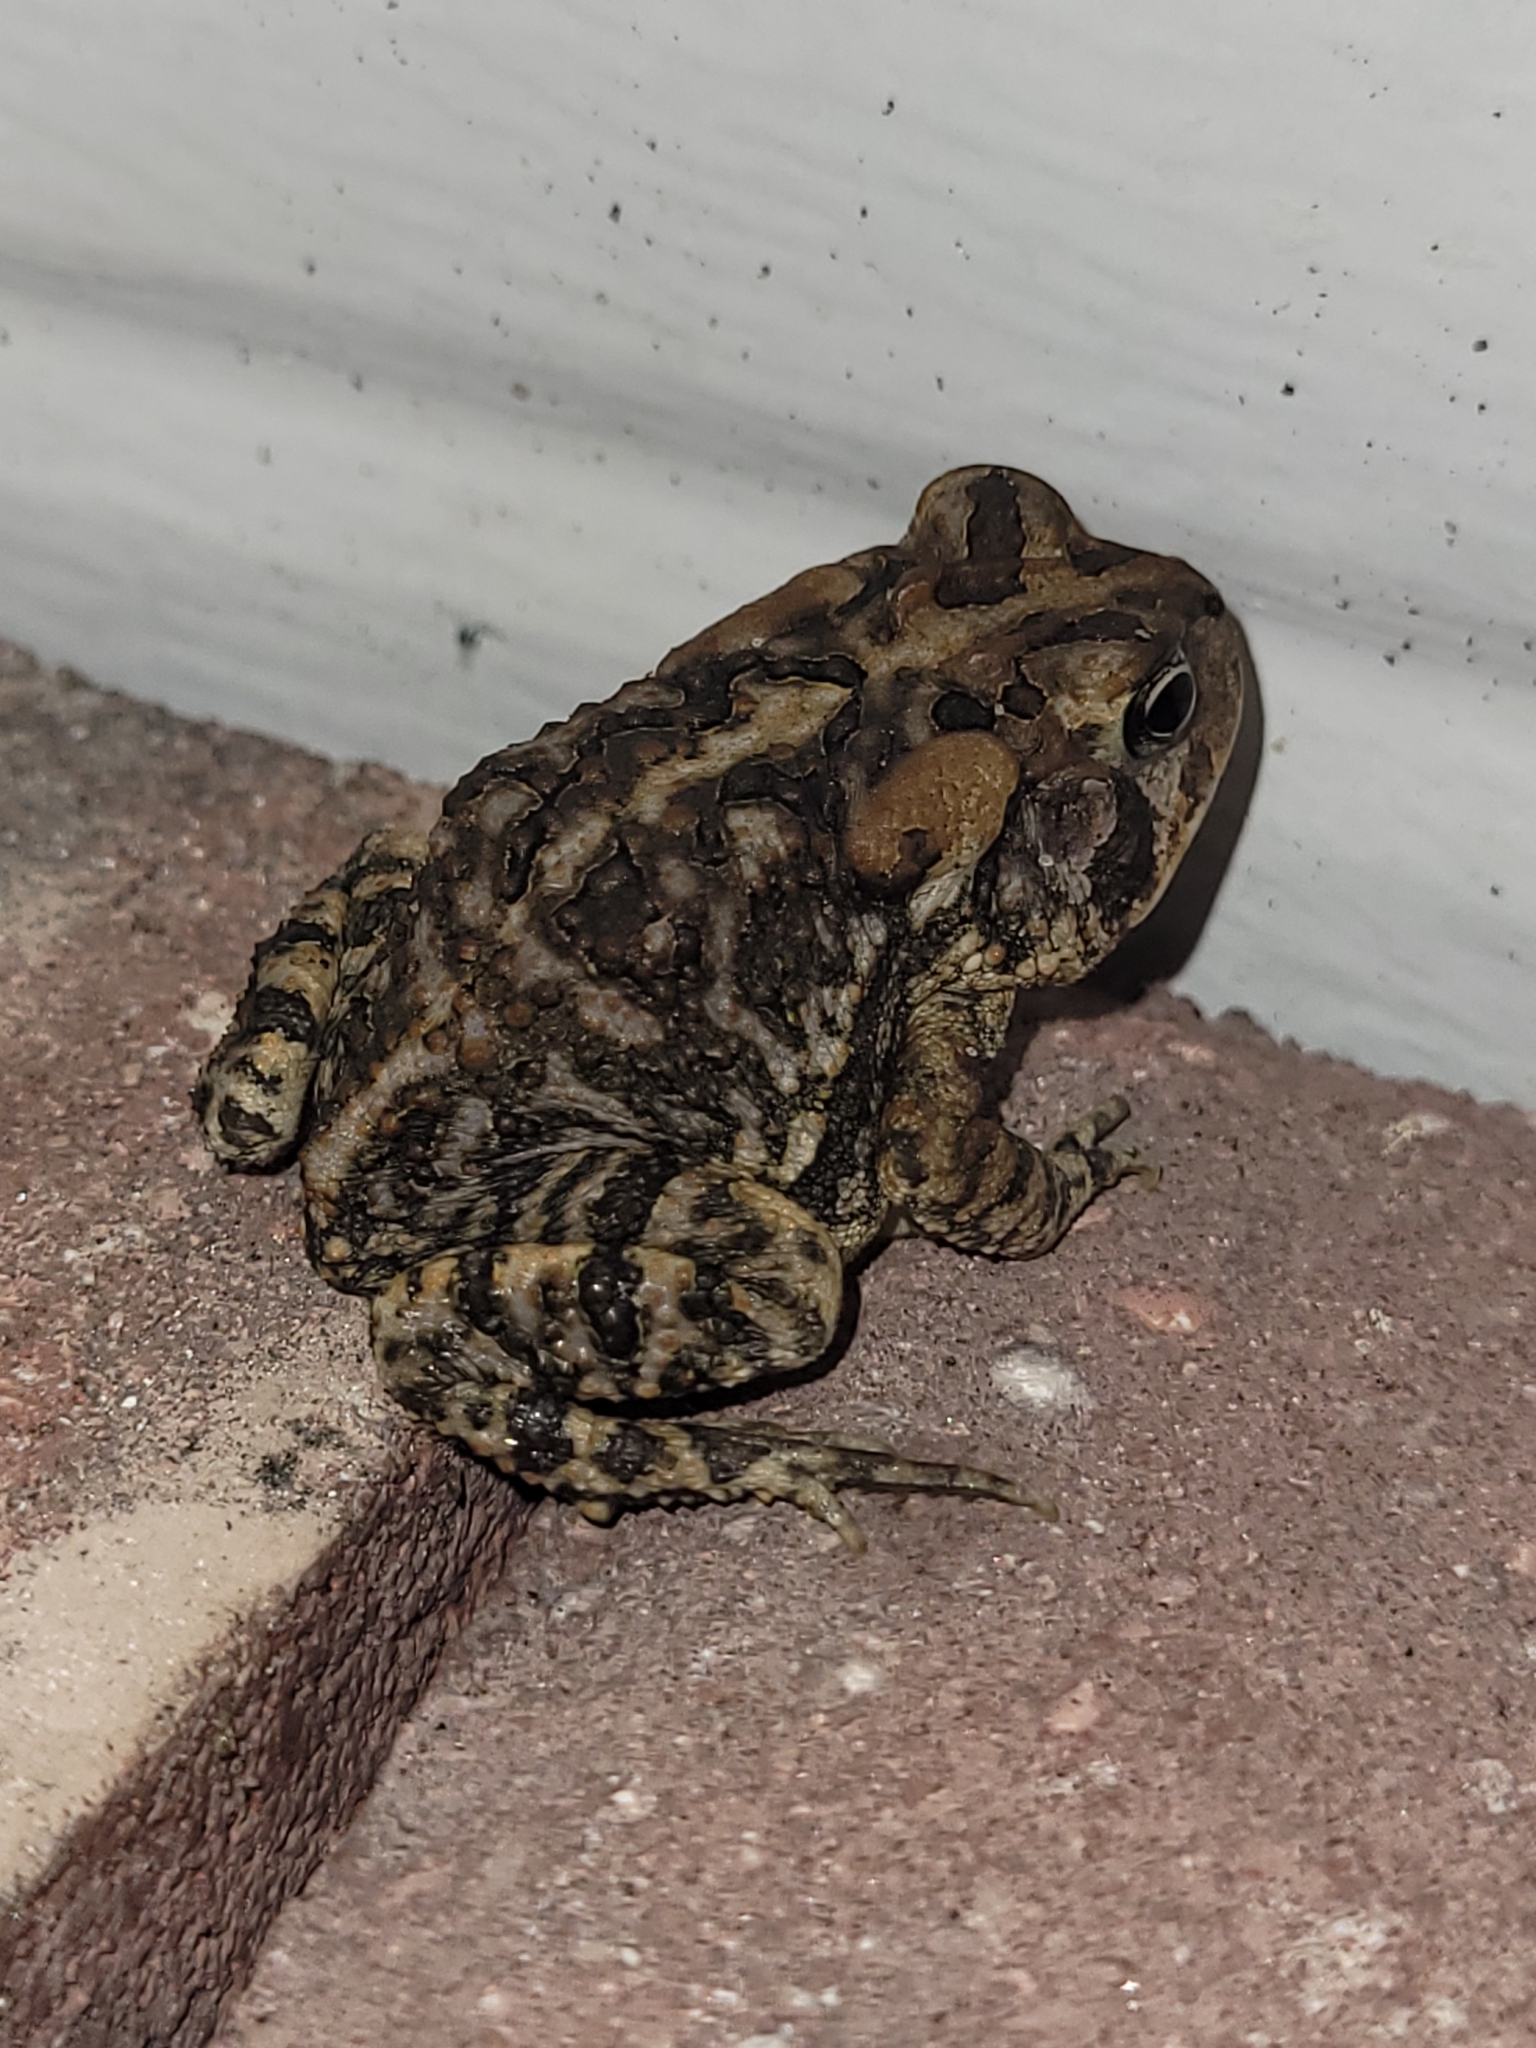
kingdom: Animalia
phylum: Chordata
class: Amphibia
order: Anura
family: Bufonidae
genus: Anaxyrus
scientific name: Anaxyrus terrestris
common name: Southern toad
